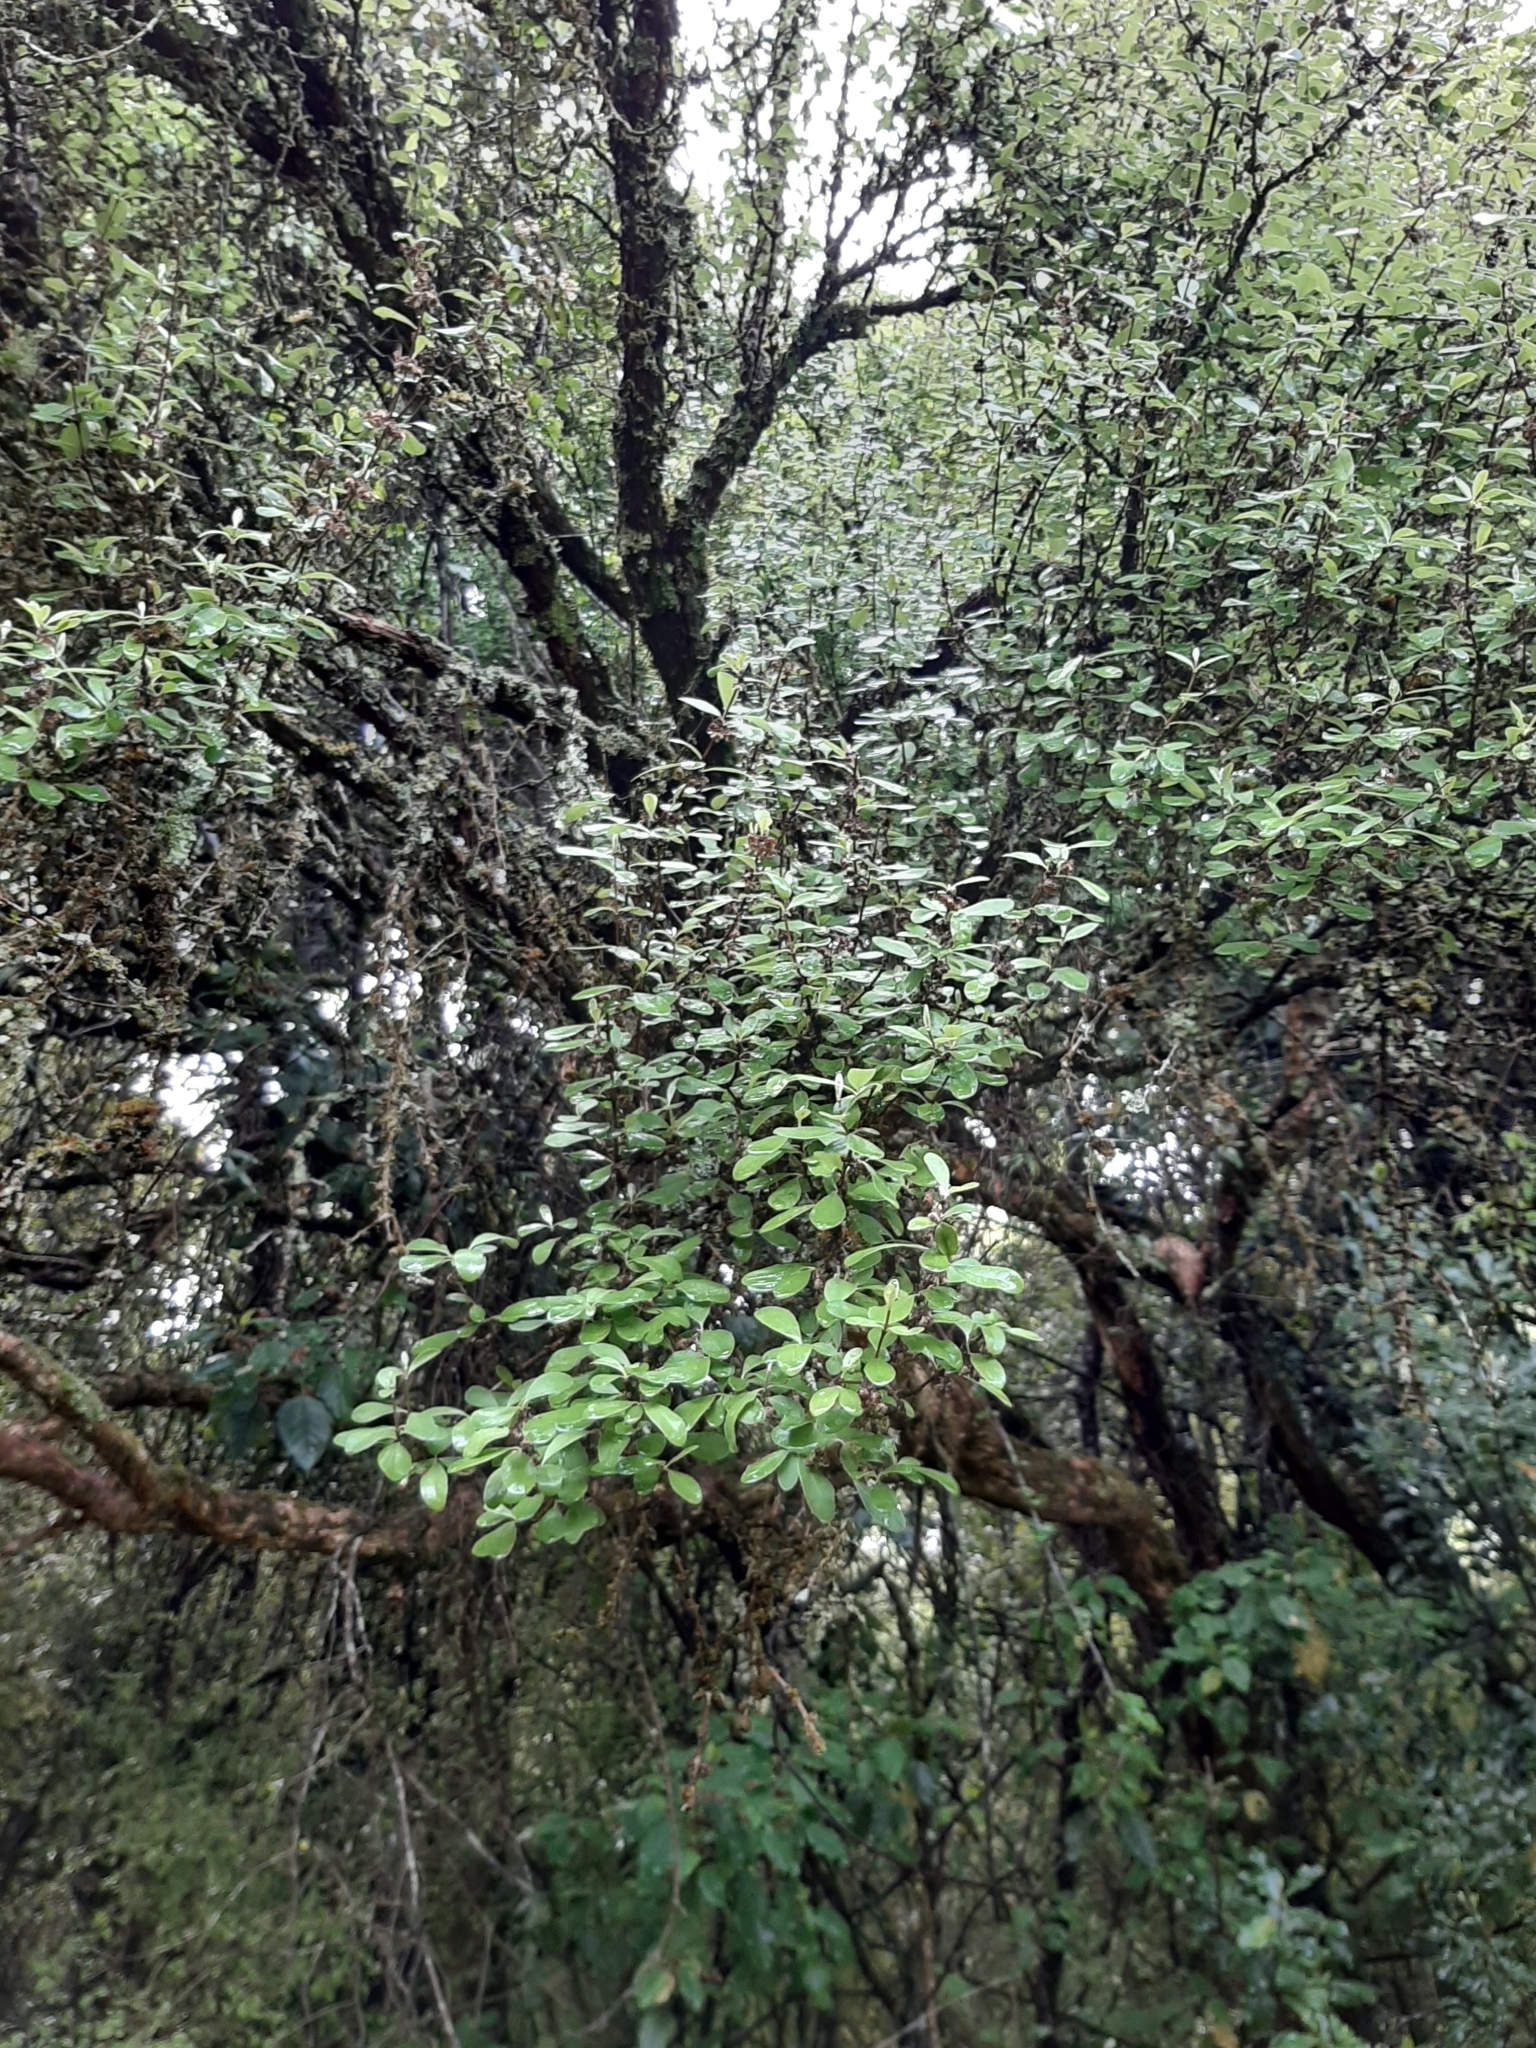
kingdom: Plantae
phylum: Tracheophyta
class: Magnoliopsida
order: Asterales
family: Asteraceae
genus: Olearia
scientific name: Olearia hectorii
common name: Deciduous tree daisy
